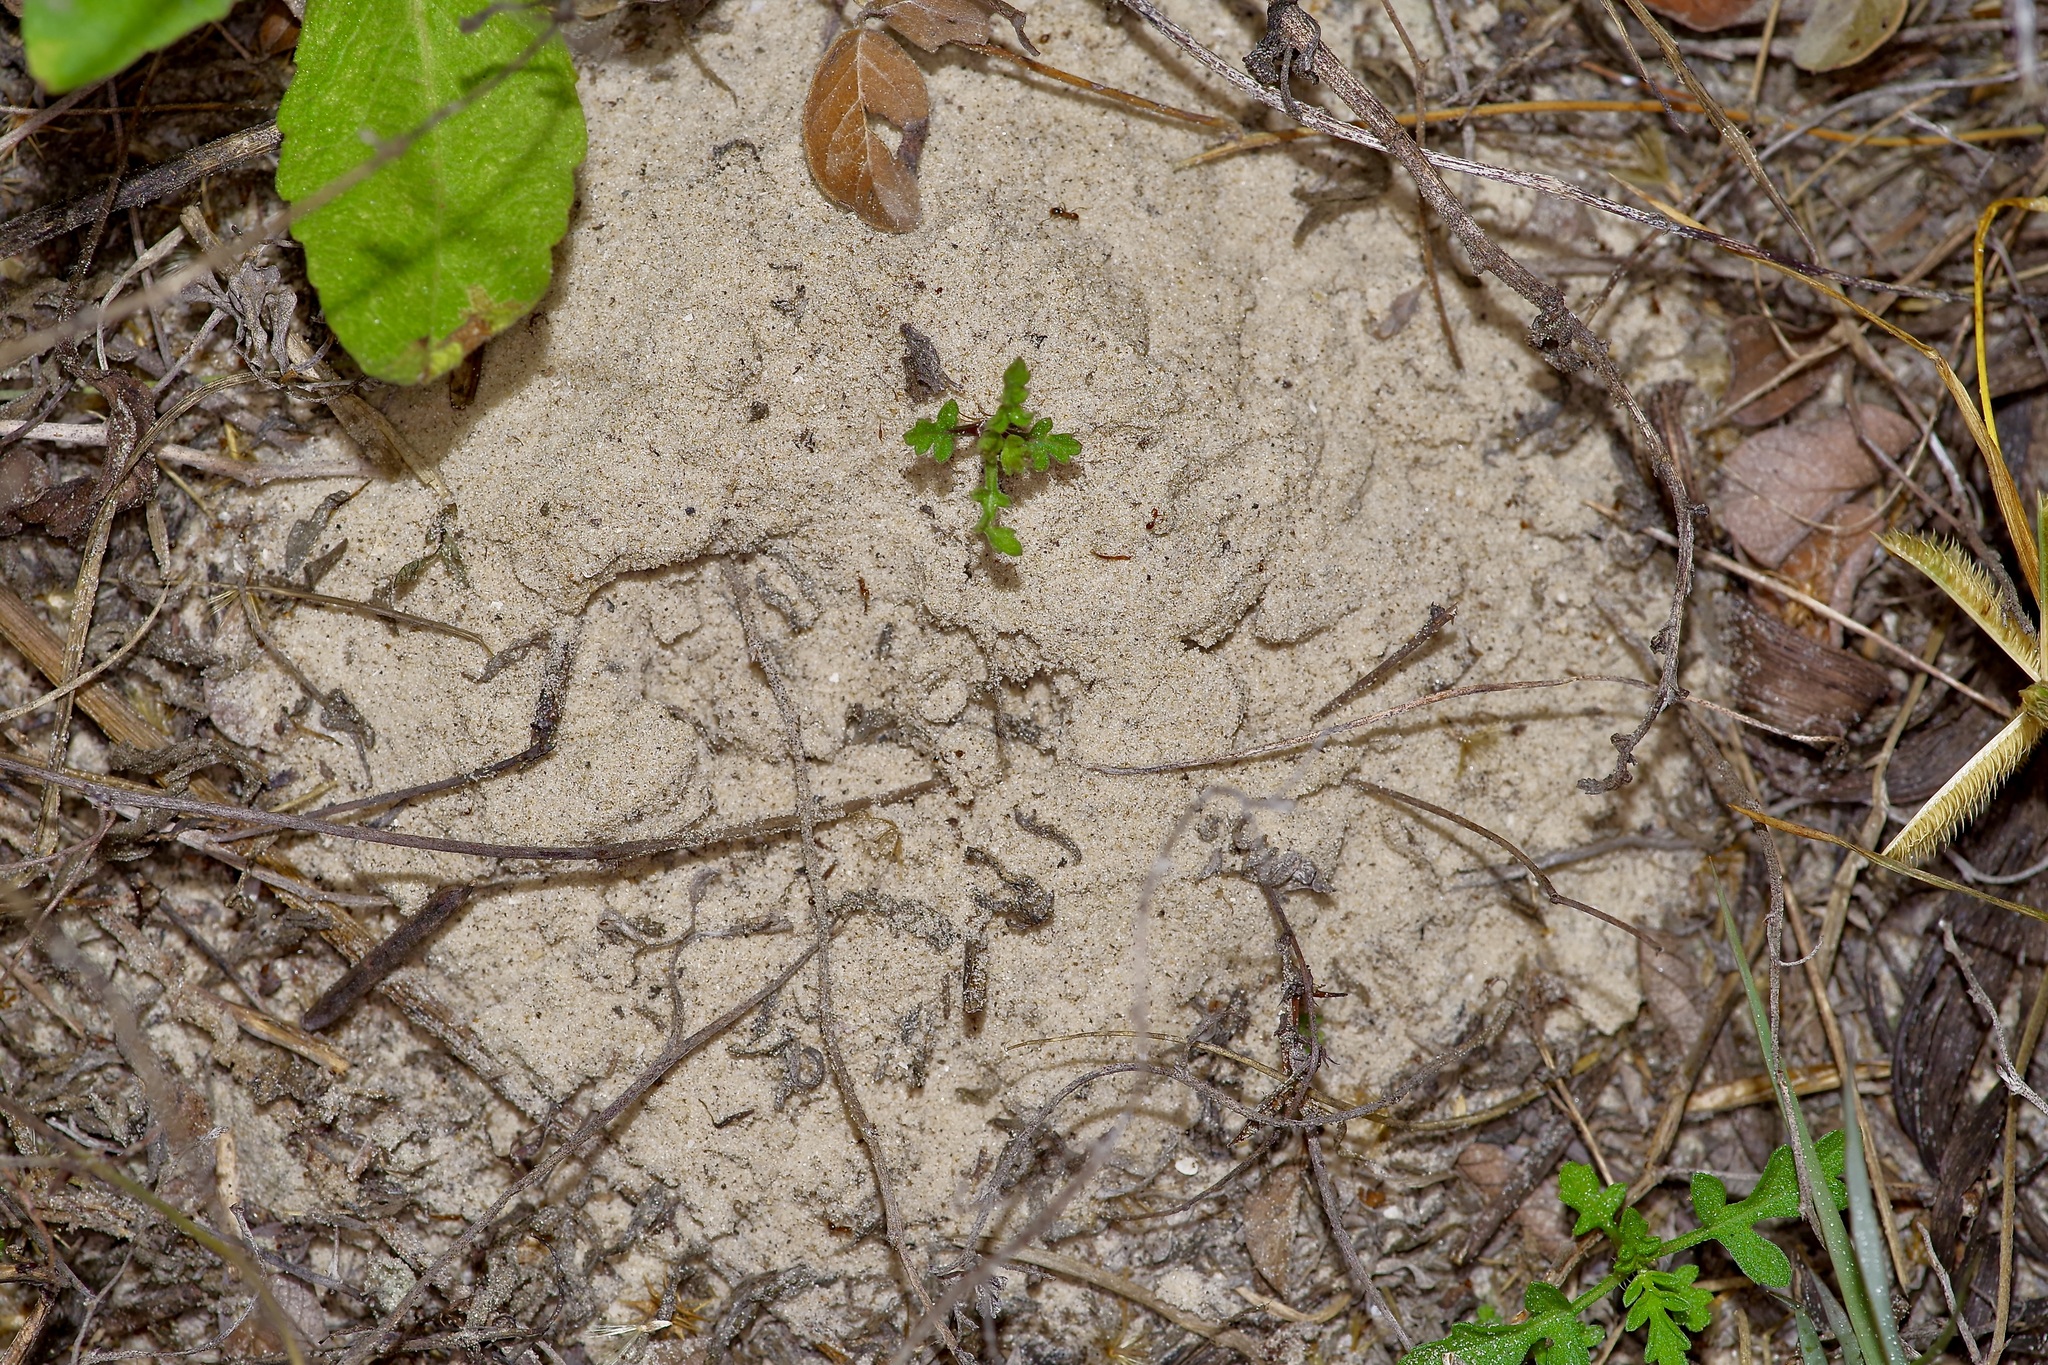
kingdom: Animalia
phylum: Arthropoda
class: Insecta
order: Hymenoptera
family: Formicidae
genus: Dorymyrmex
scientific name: Dorymyrmex flavus
